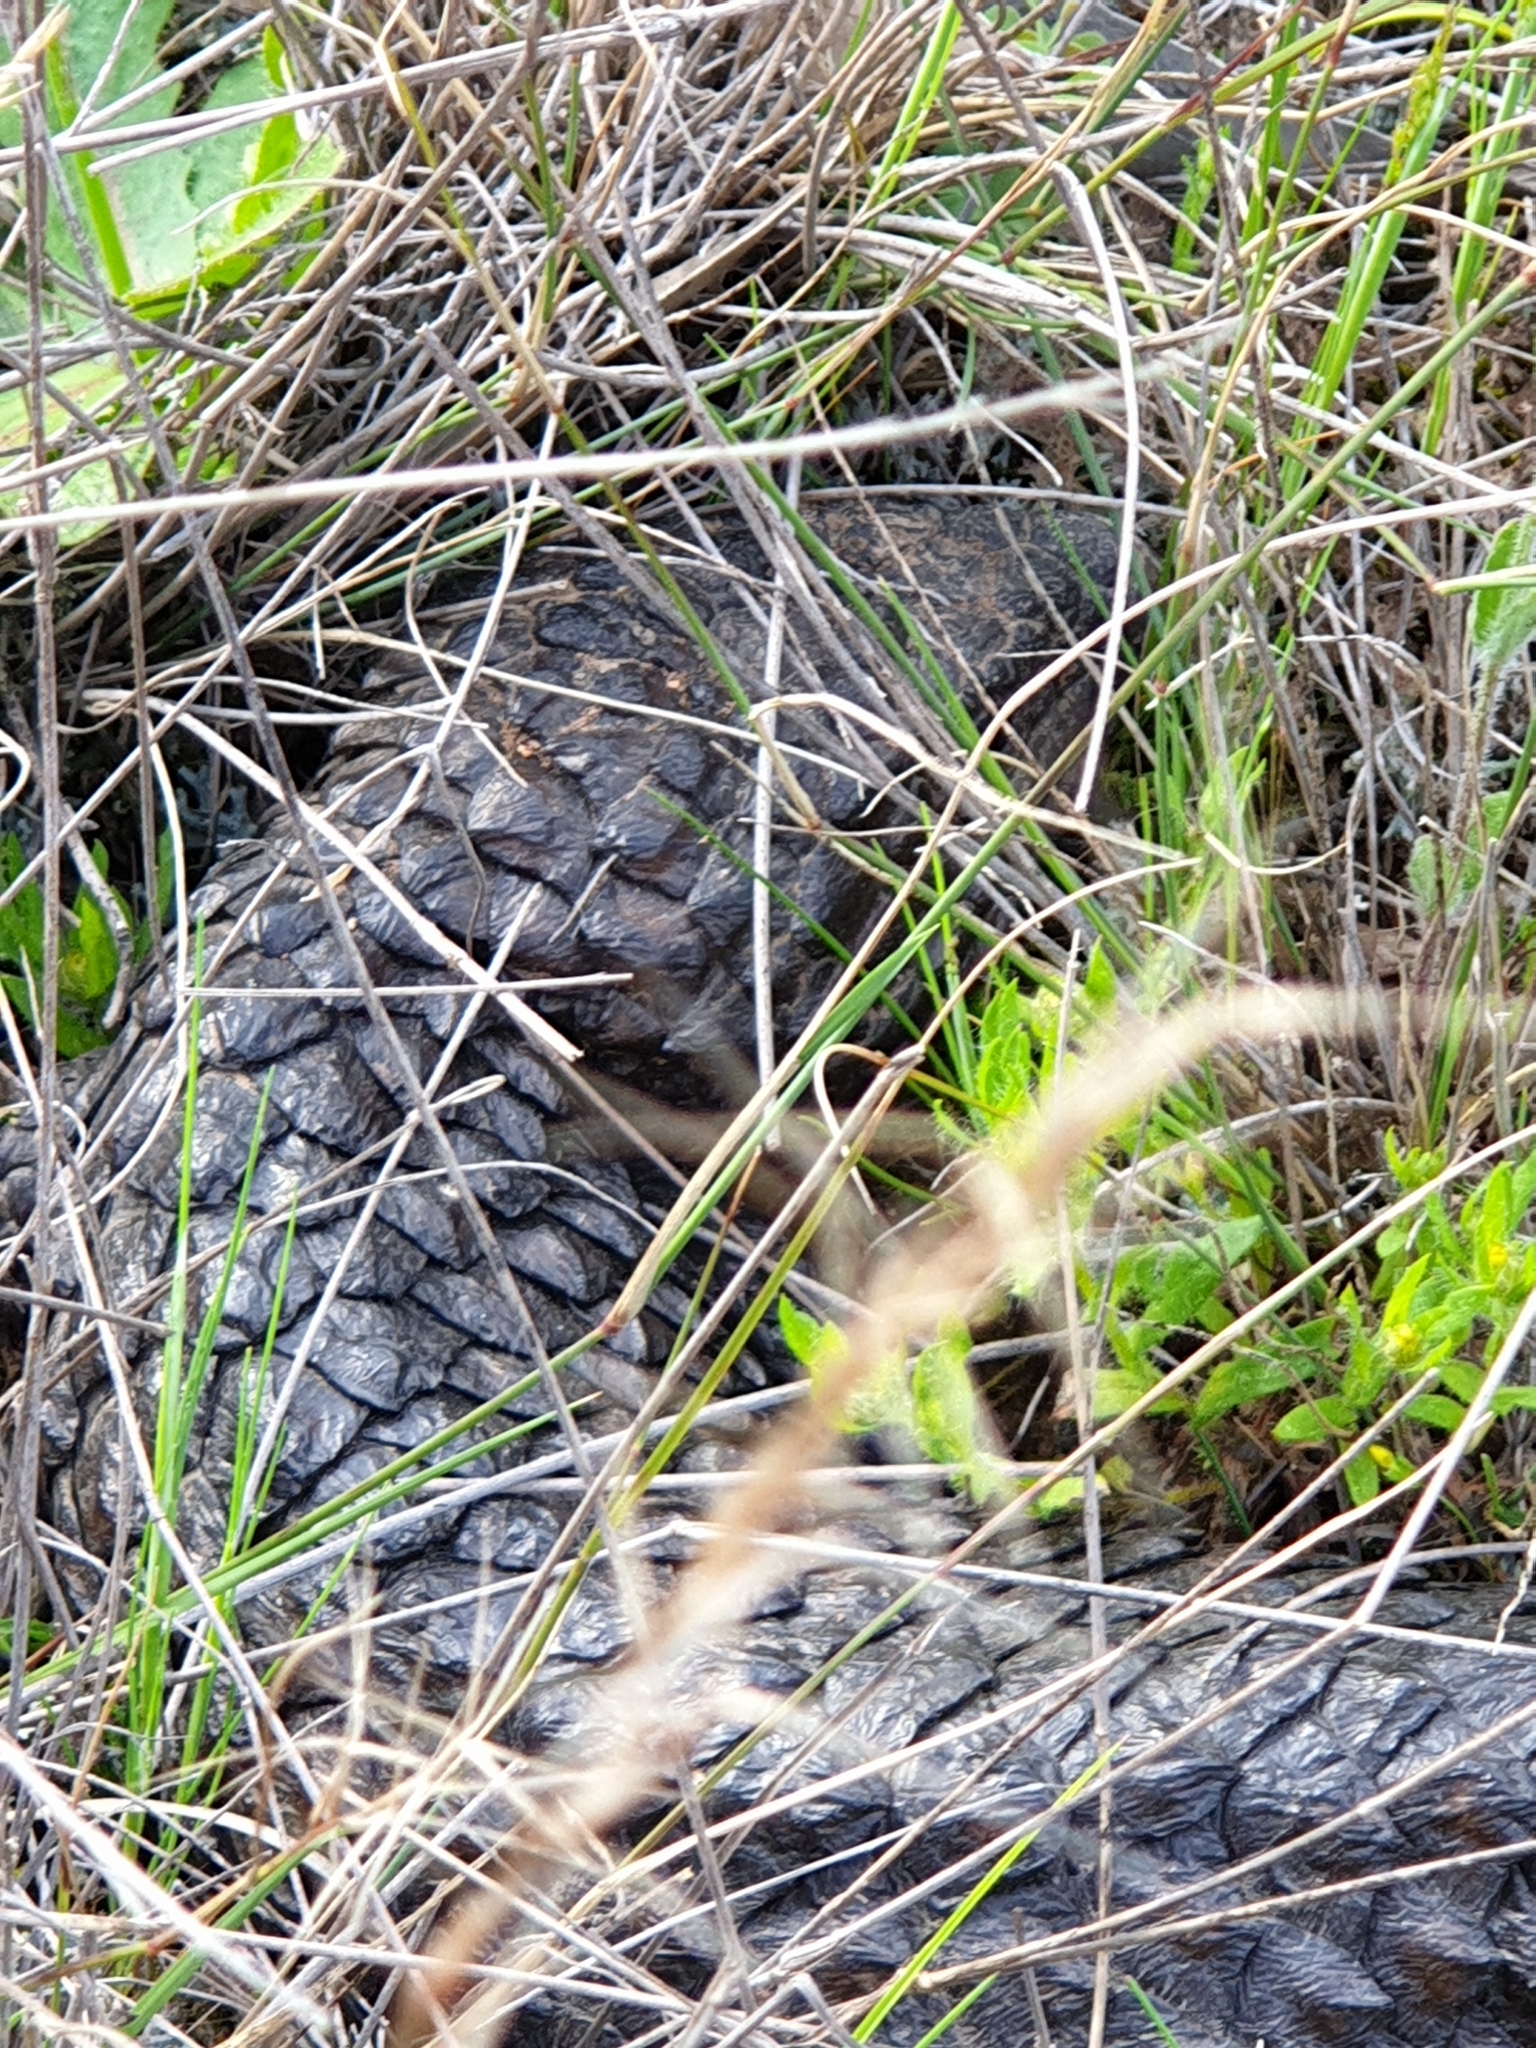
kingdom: Animalia
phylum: Chordata
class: Squamata
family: Scincidae
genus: Tiliqua
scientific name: Tiliqua rugosa
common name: Pinecone lizard
